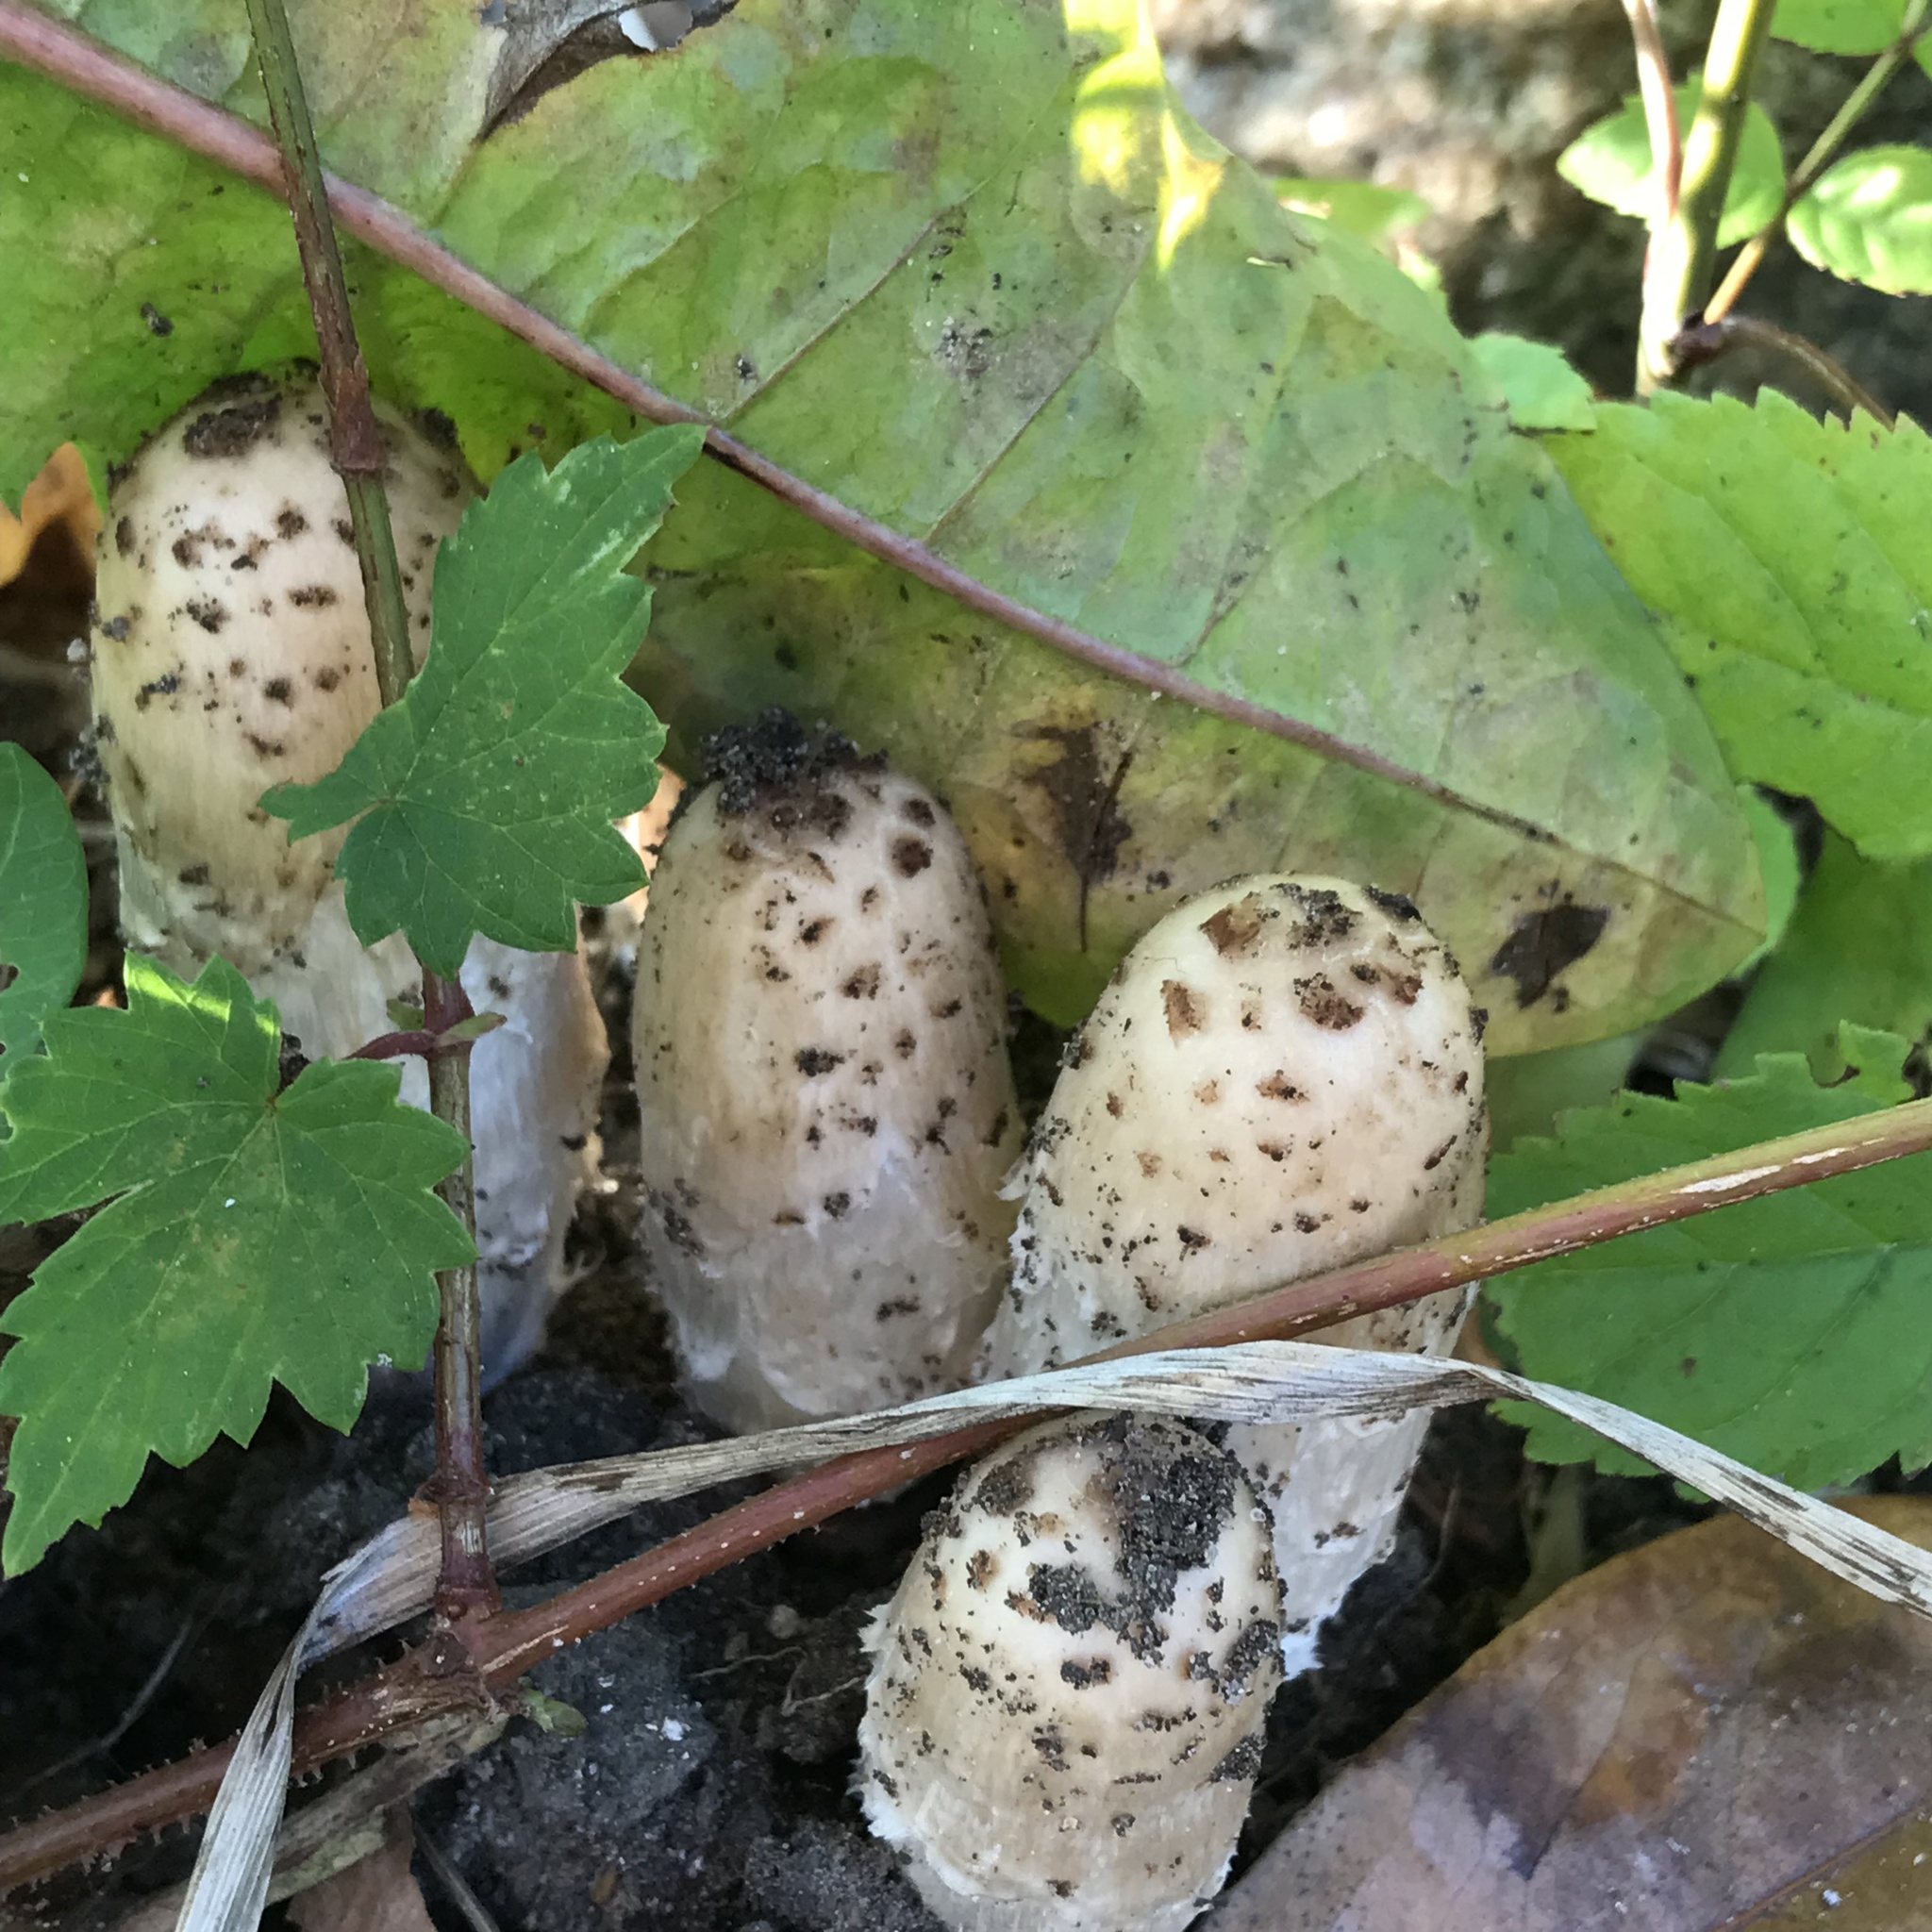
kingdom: Fungi
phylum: Basidiomycota
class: Agaricomycetes
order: Agaricales
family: Agaricaceae
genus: Coprinus
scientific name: Coprinus comatus
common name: Lawyer's wig
